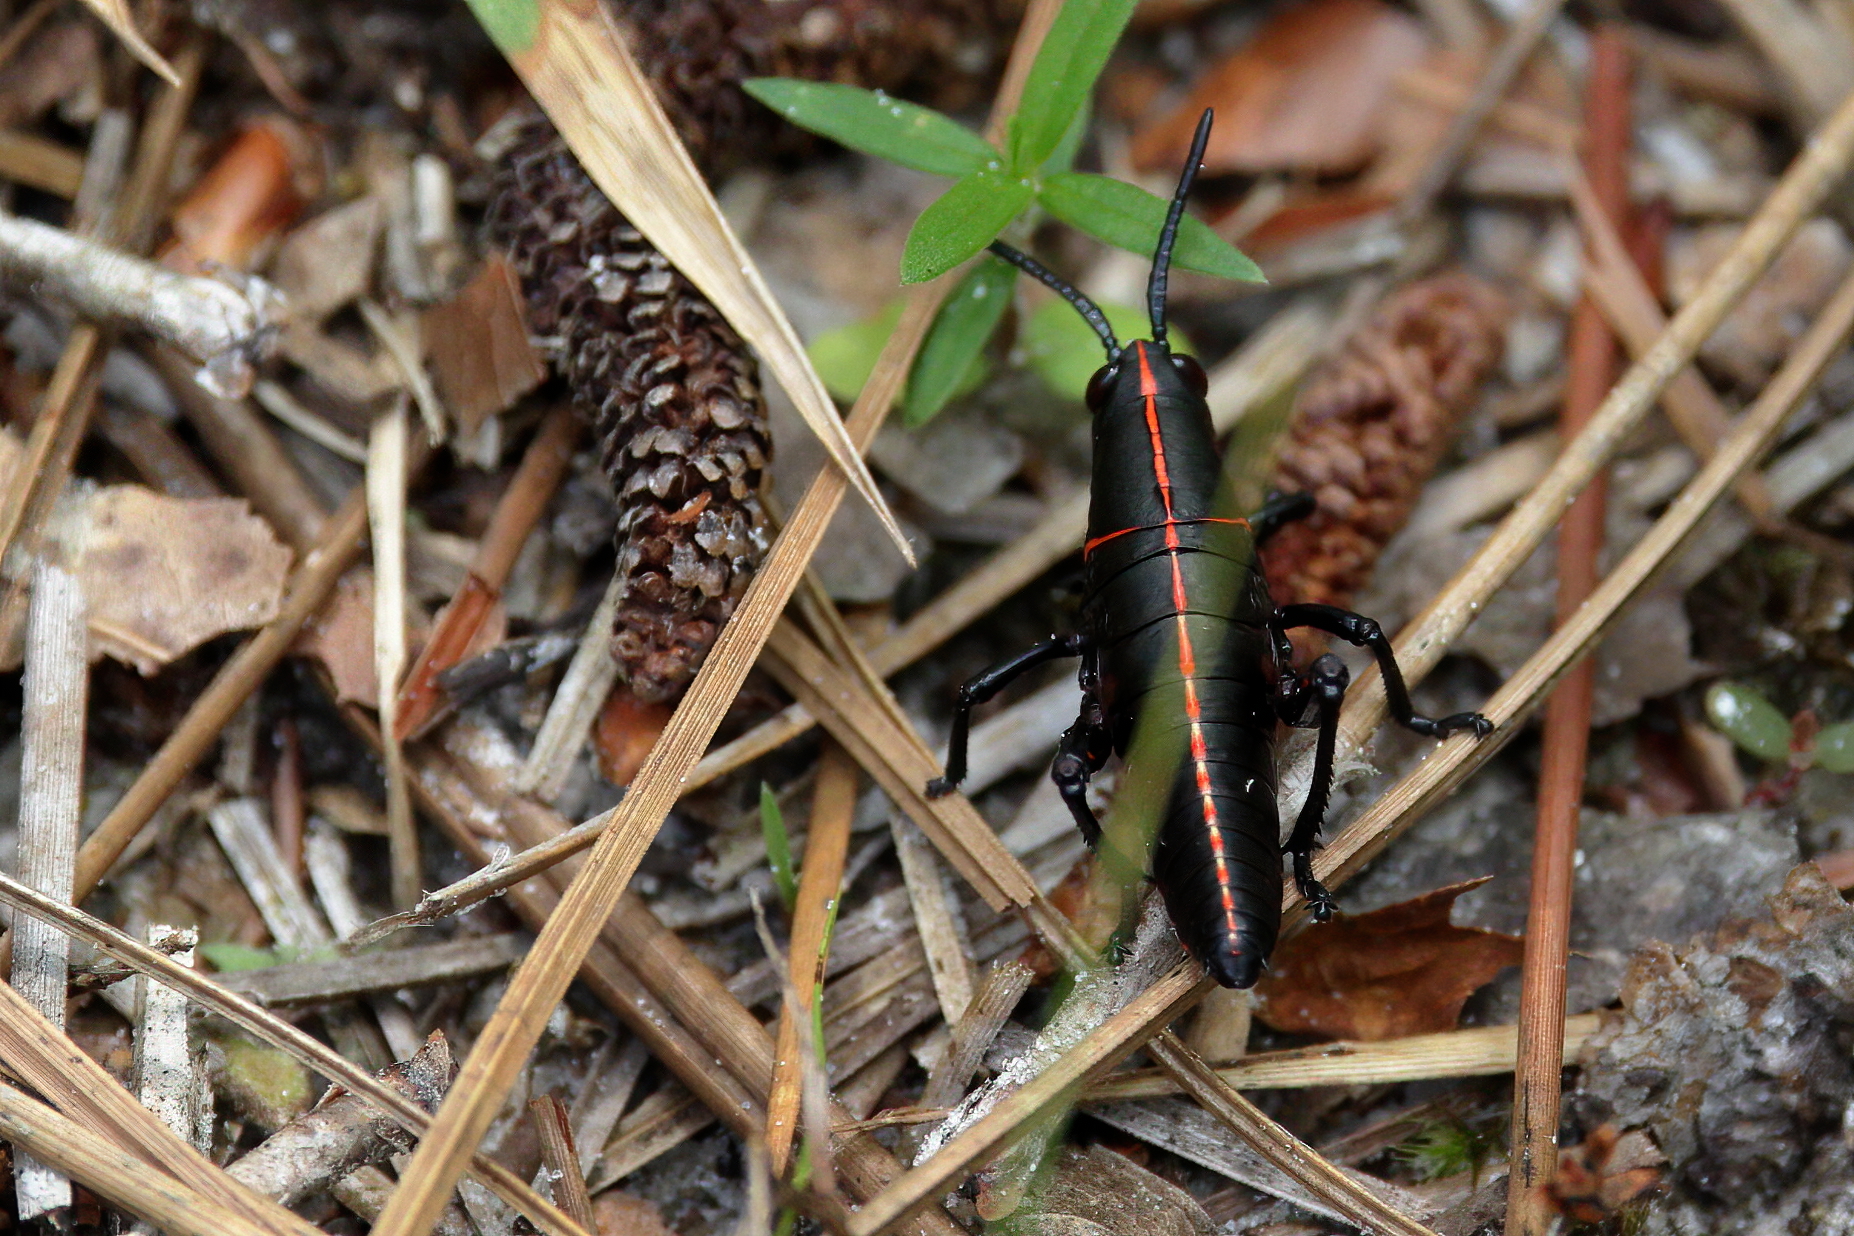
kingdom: Animalia
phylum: Arthropoda
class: Insecta
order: Orthoptera
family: Romaleidae
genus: Romalea
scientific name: Romalea microptera
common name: Eastern lubber grasshopper
